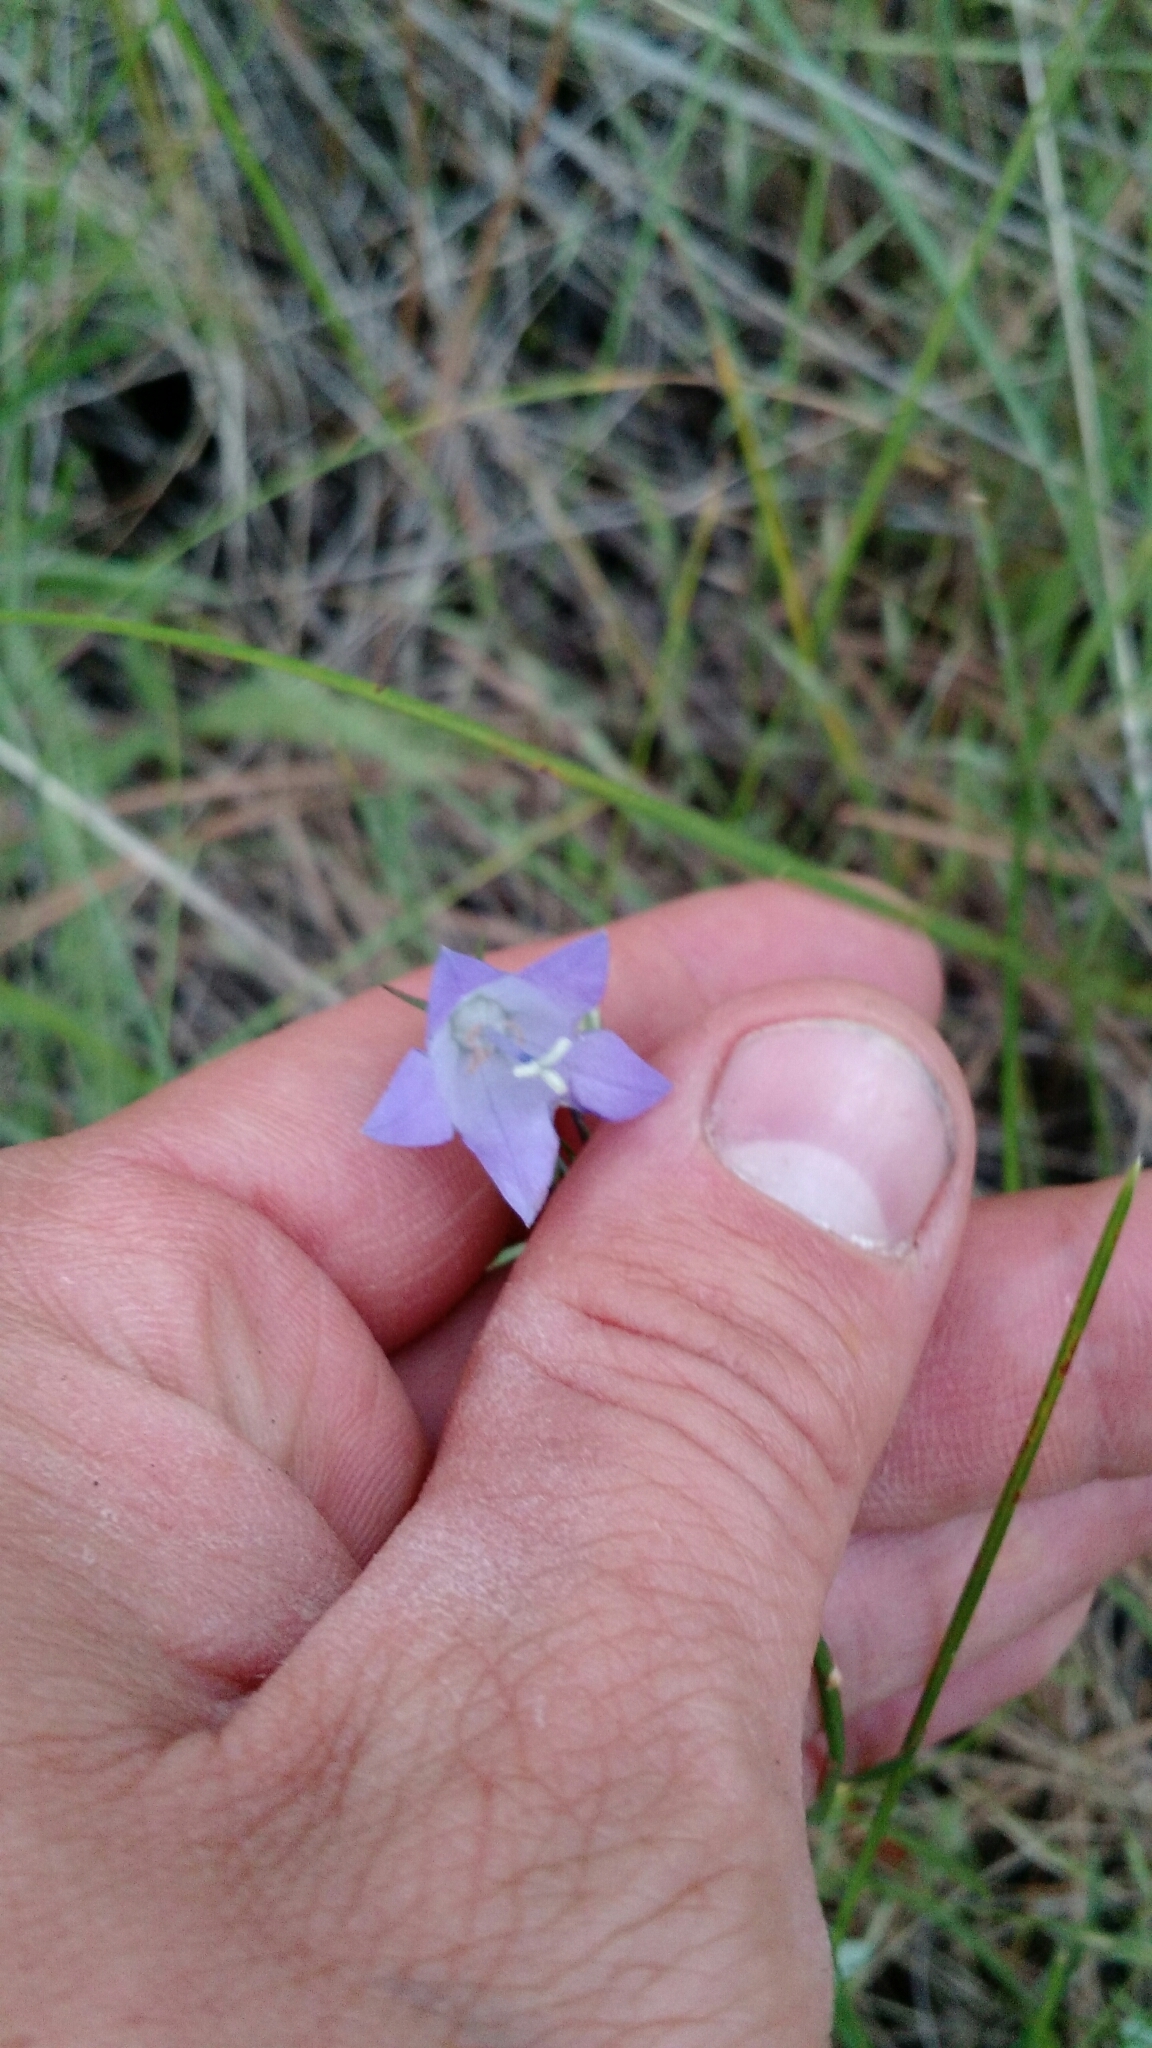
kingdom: Plantae
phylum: Tracheophyta
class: Magnoliopsida
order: Asterales
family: Campanulaceae
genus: Campanula
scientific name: Campanula petiolata
